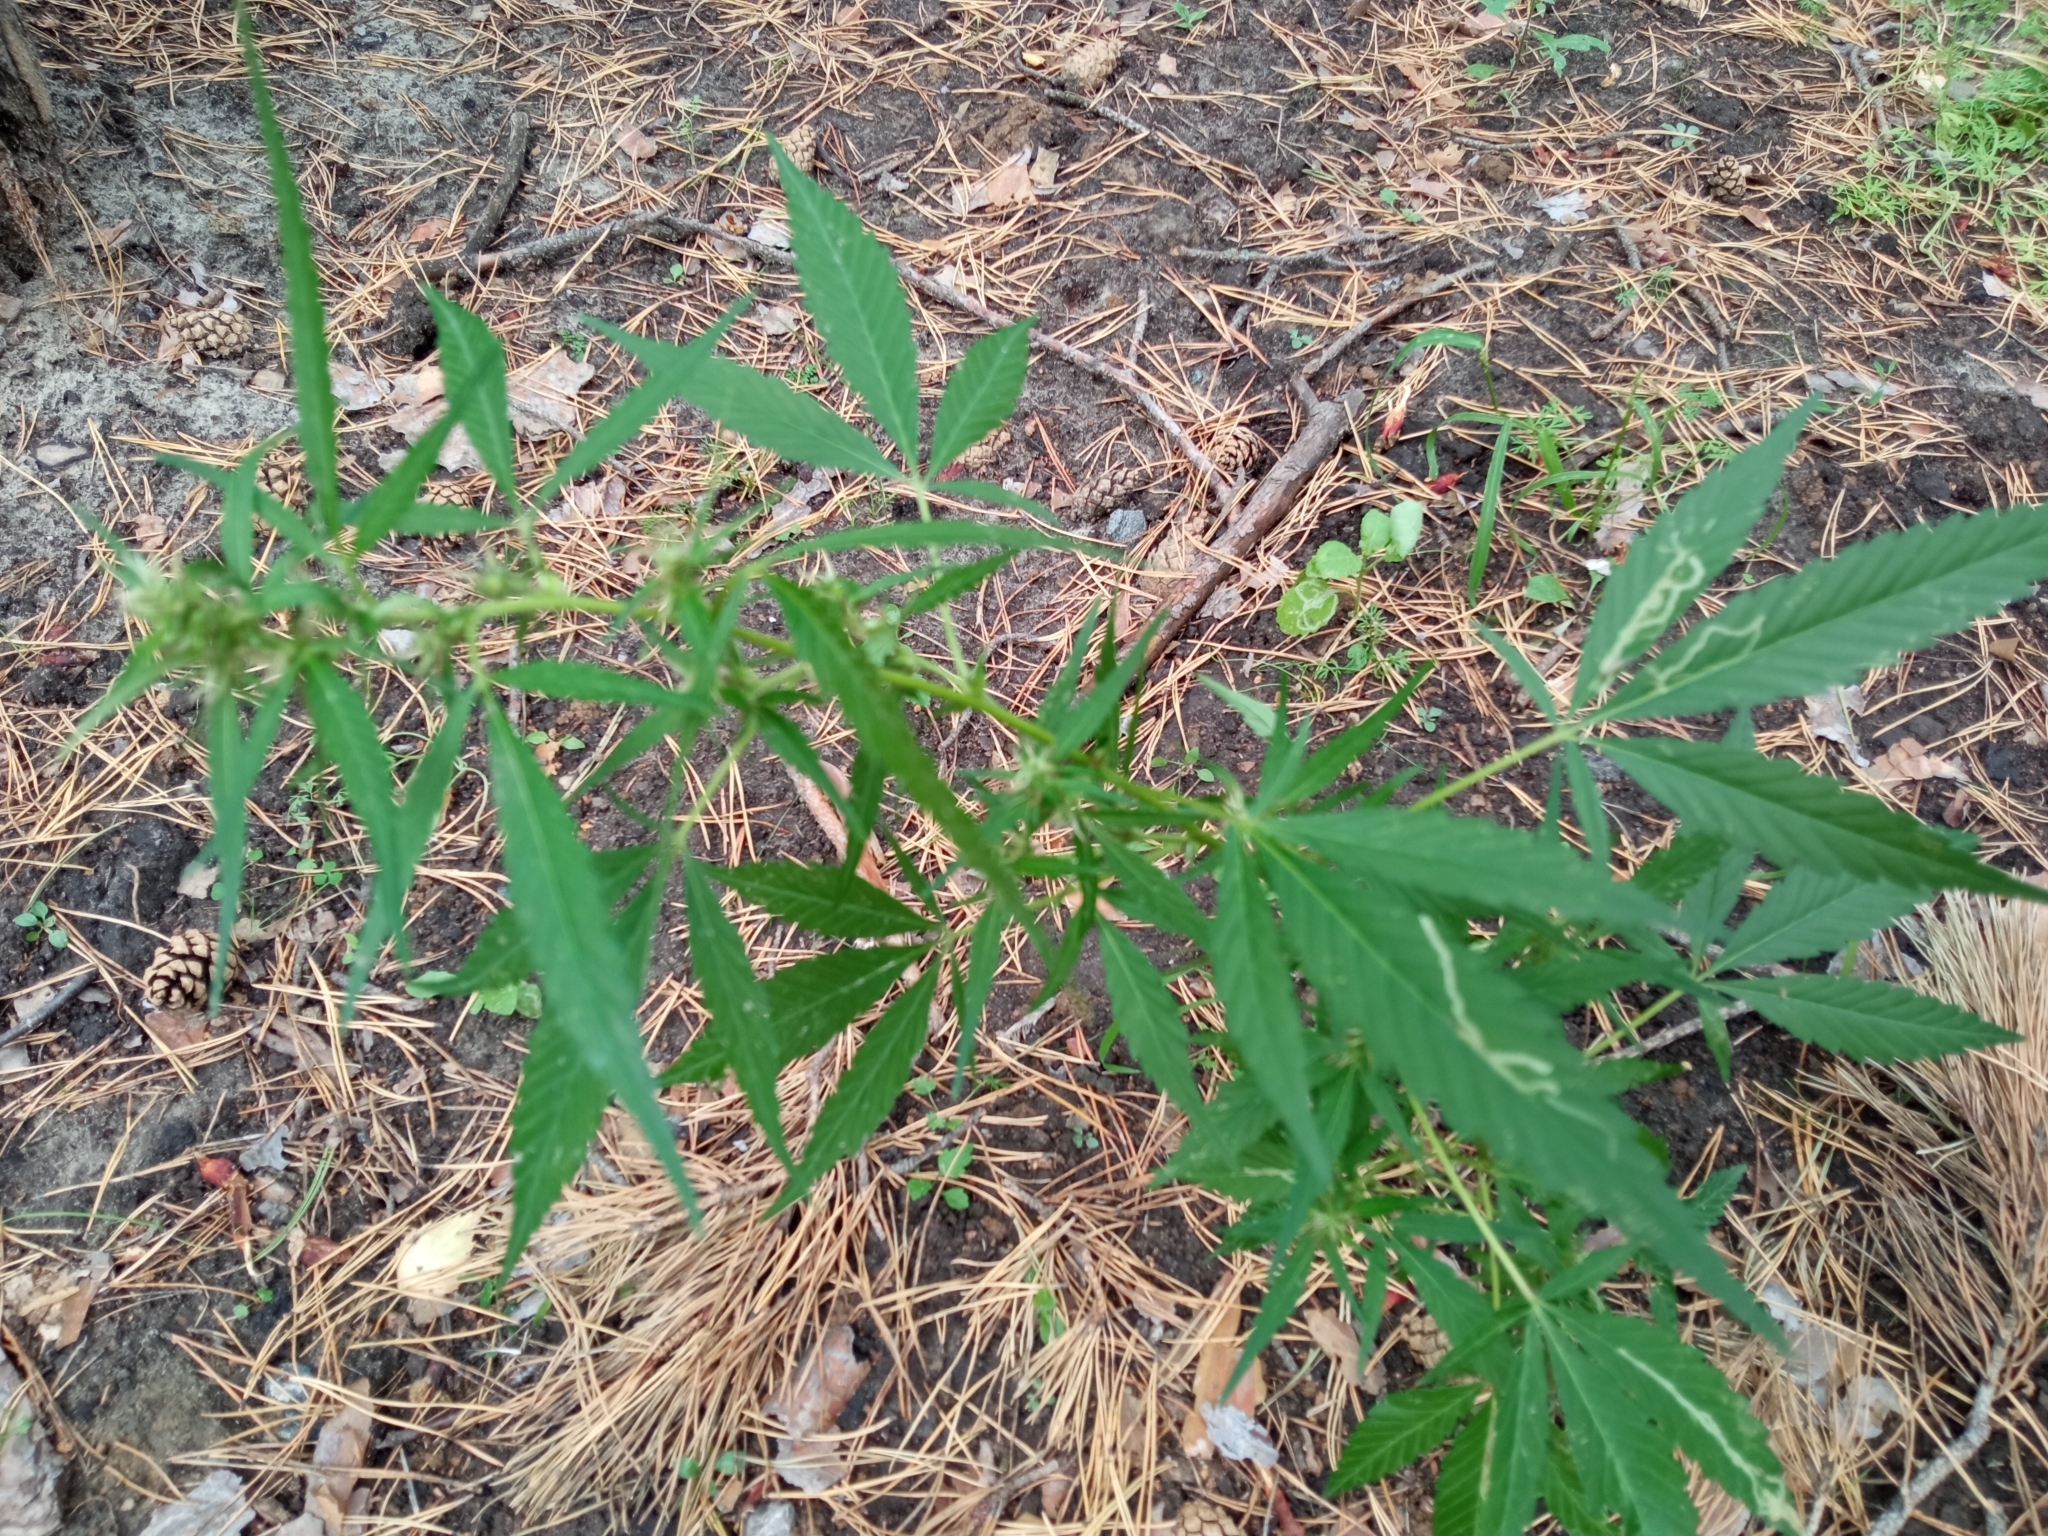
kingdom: Plantae
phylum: Tracheophyta
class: Magnoliopsida
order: Rosales
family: Cannabaceae
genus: Cannabis
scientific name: Cannabis sativa
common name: Hemp
